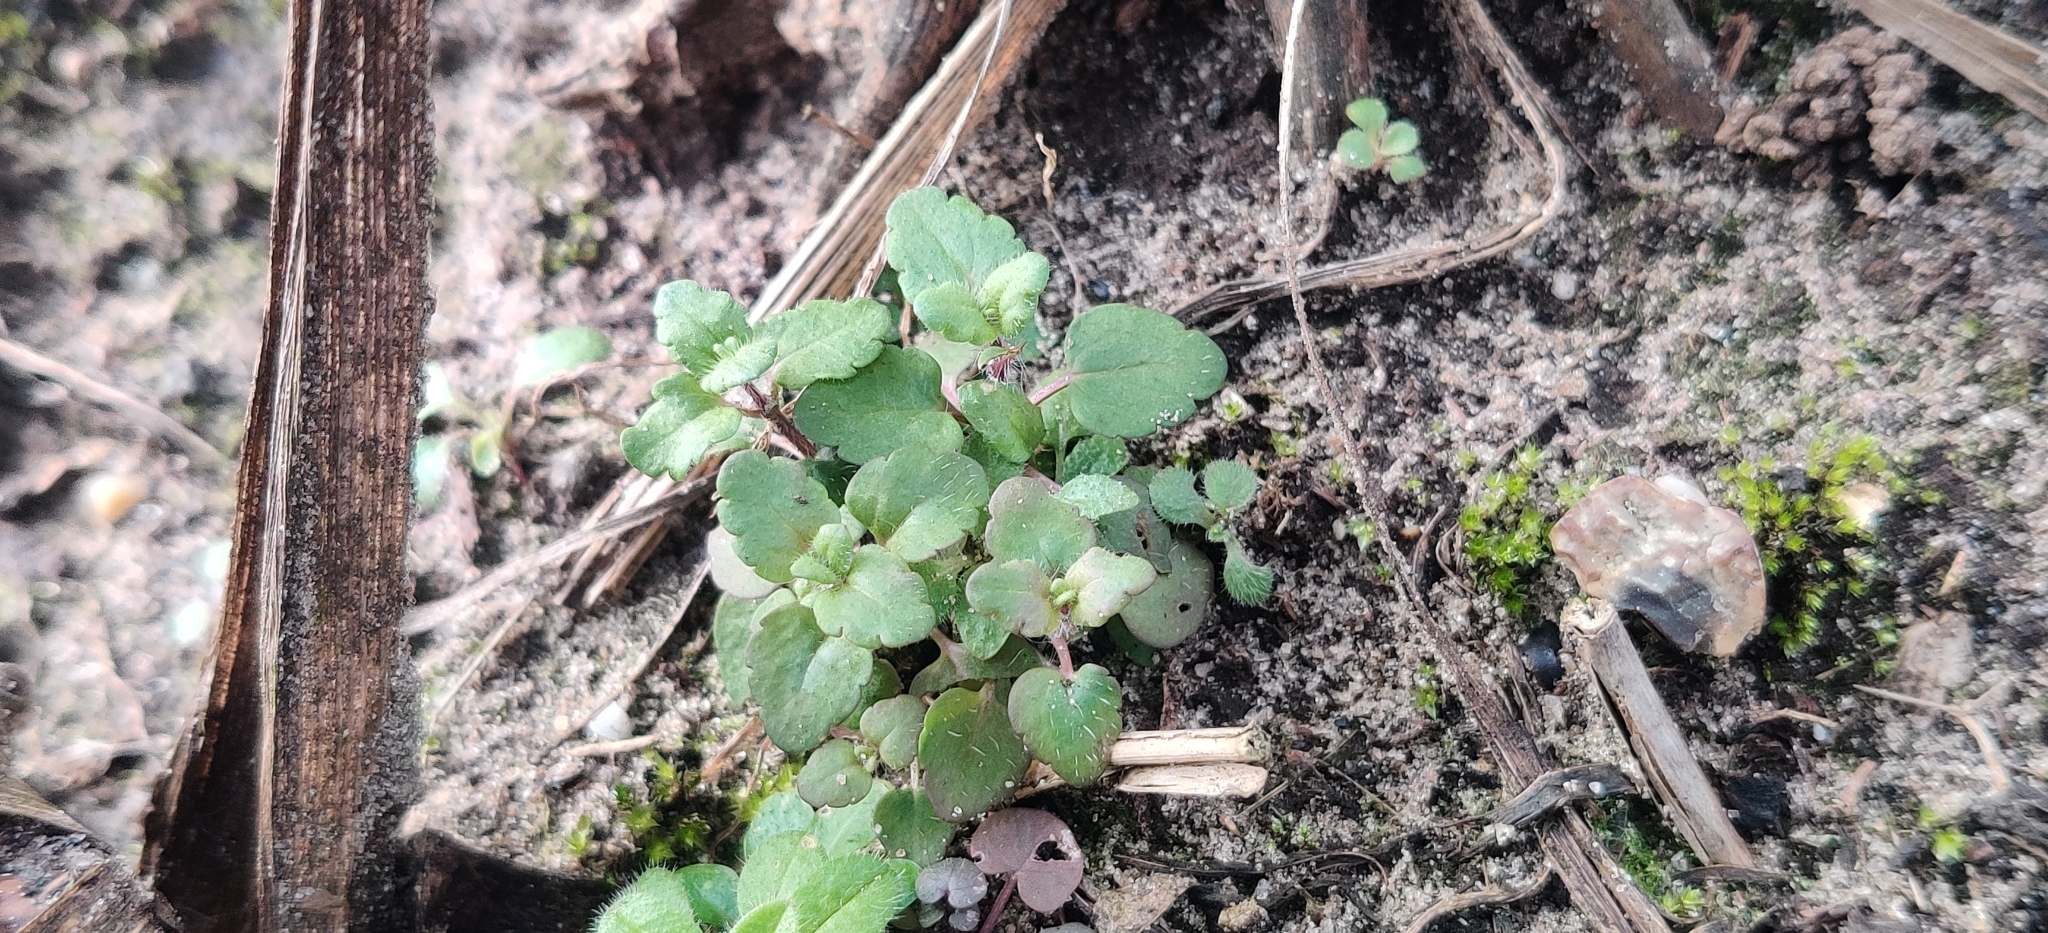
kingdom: Plantae
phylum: Tracheophyta
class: Magnoliopsida
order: Lamiales
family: Plantaginaceae
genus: Veronica
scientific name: Veronica arvensis
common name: Corn speedwell
